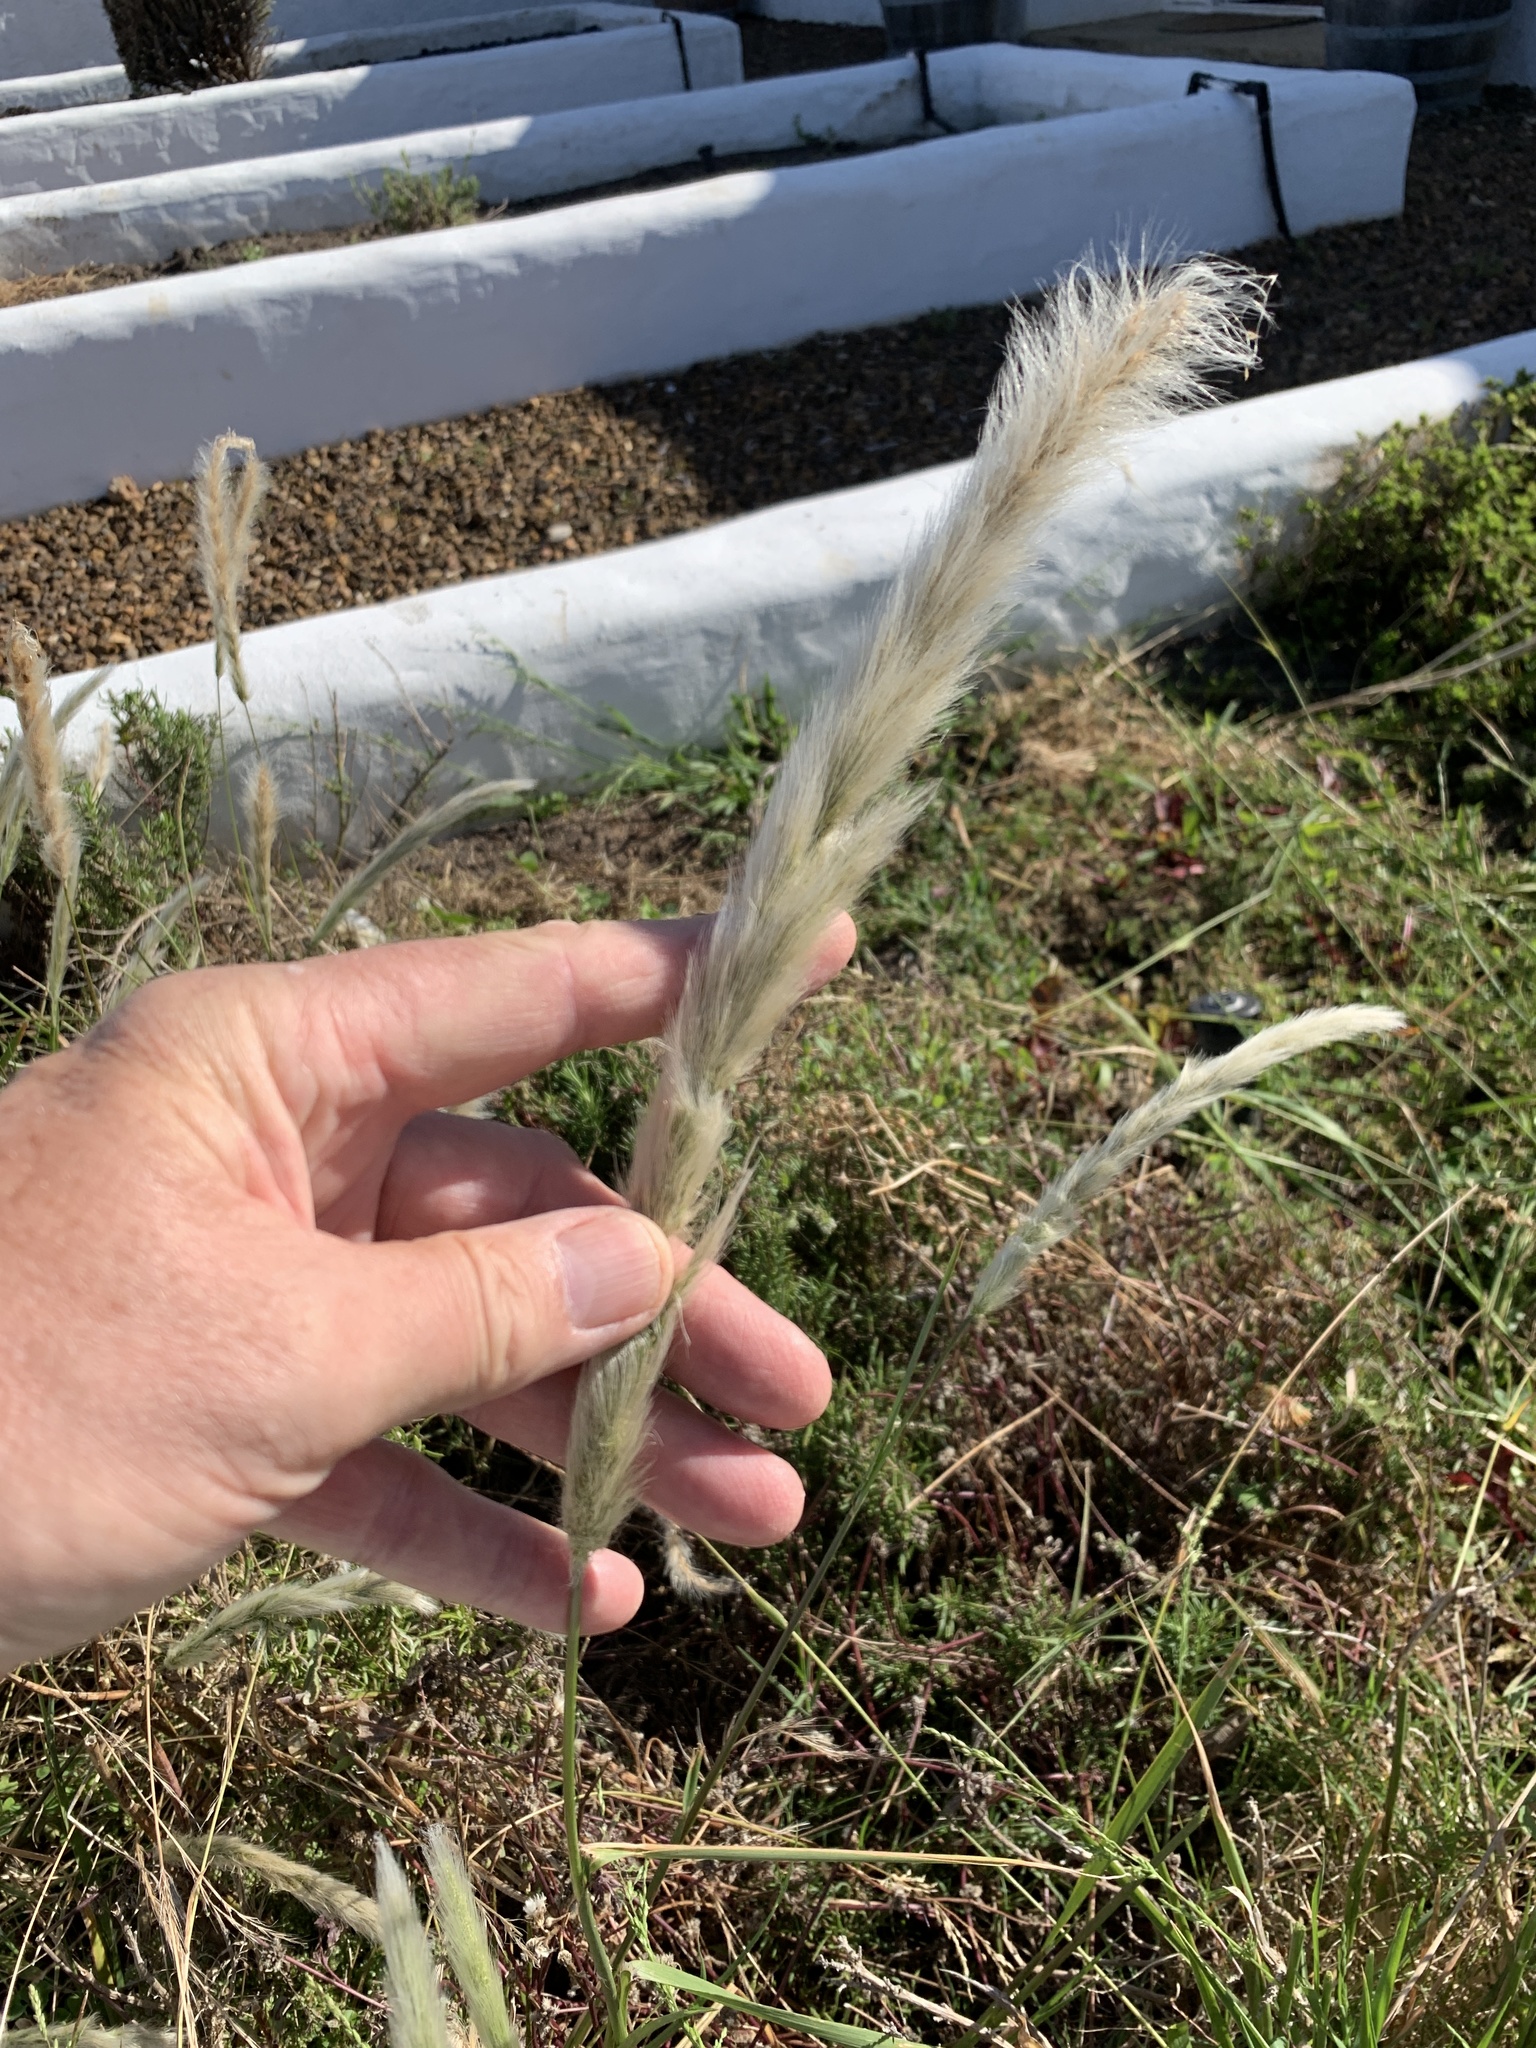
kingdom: Plantae
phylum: Tracheophyta
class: Liliopsida
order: Poales
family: Poaceae
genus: Imperata
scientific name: Imperata cylindrica
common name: Cogongrass
